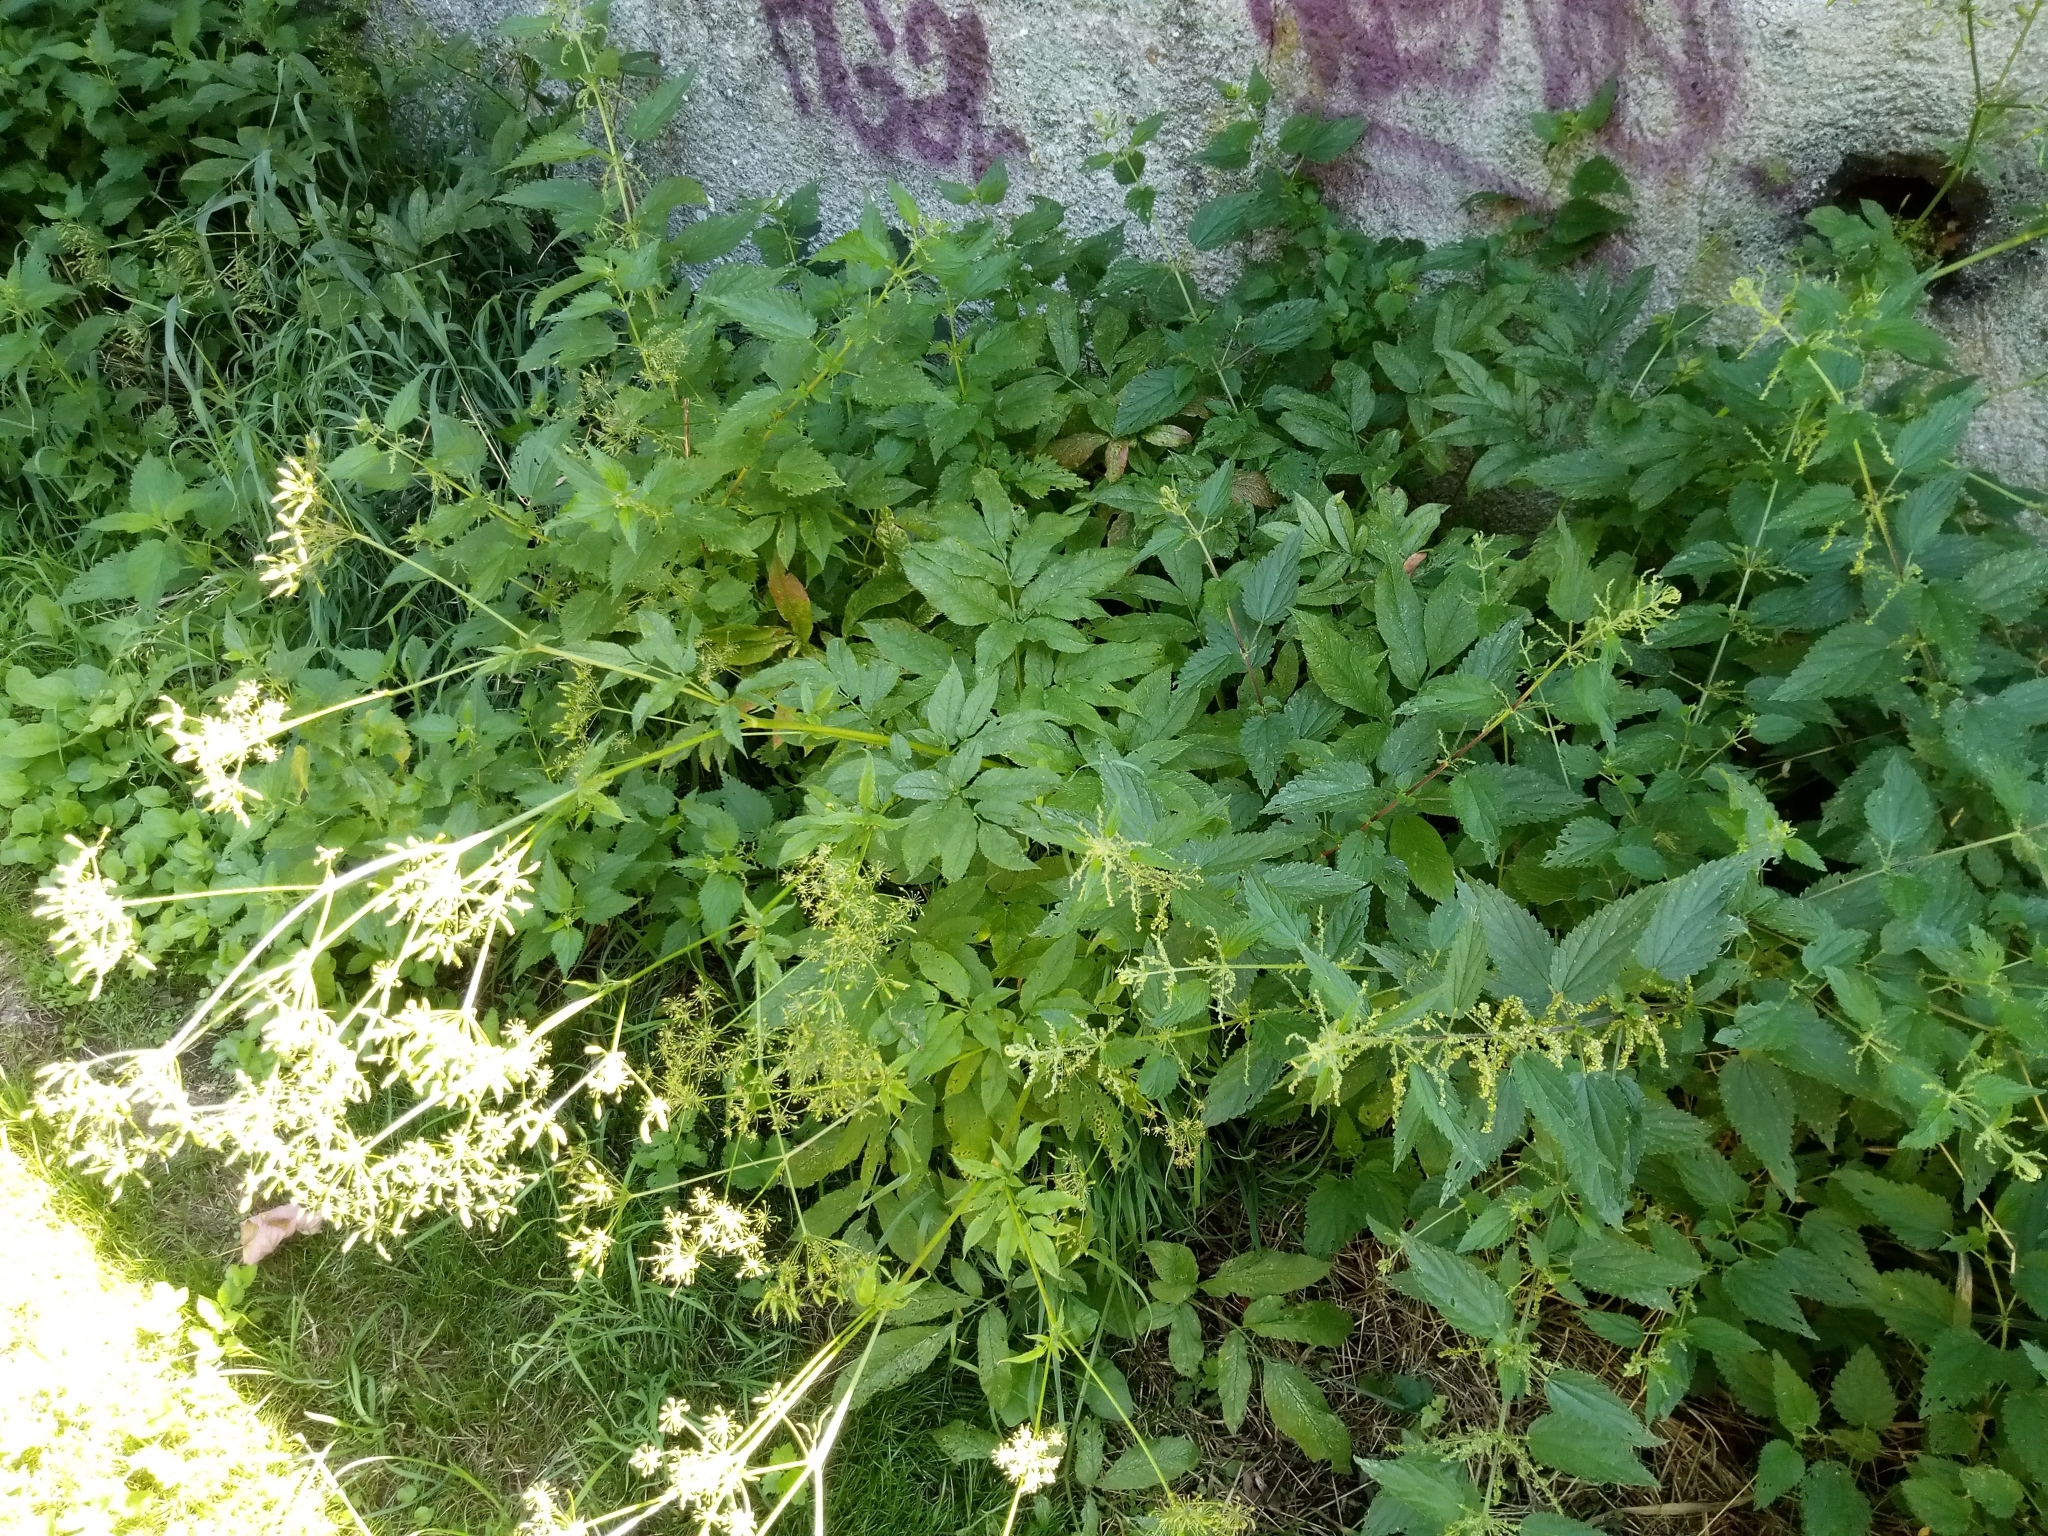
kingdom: Plantae
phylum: Tracheophyta
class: Magnoliopsida
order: Apiales
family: Apiaceae
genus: Chaerophyllum
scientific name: Chaerophyllum aromaticum
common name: Broadleaf chervil
